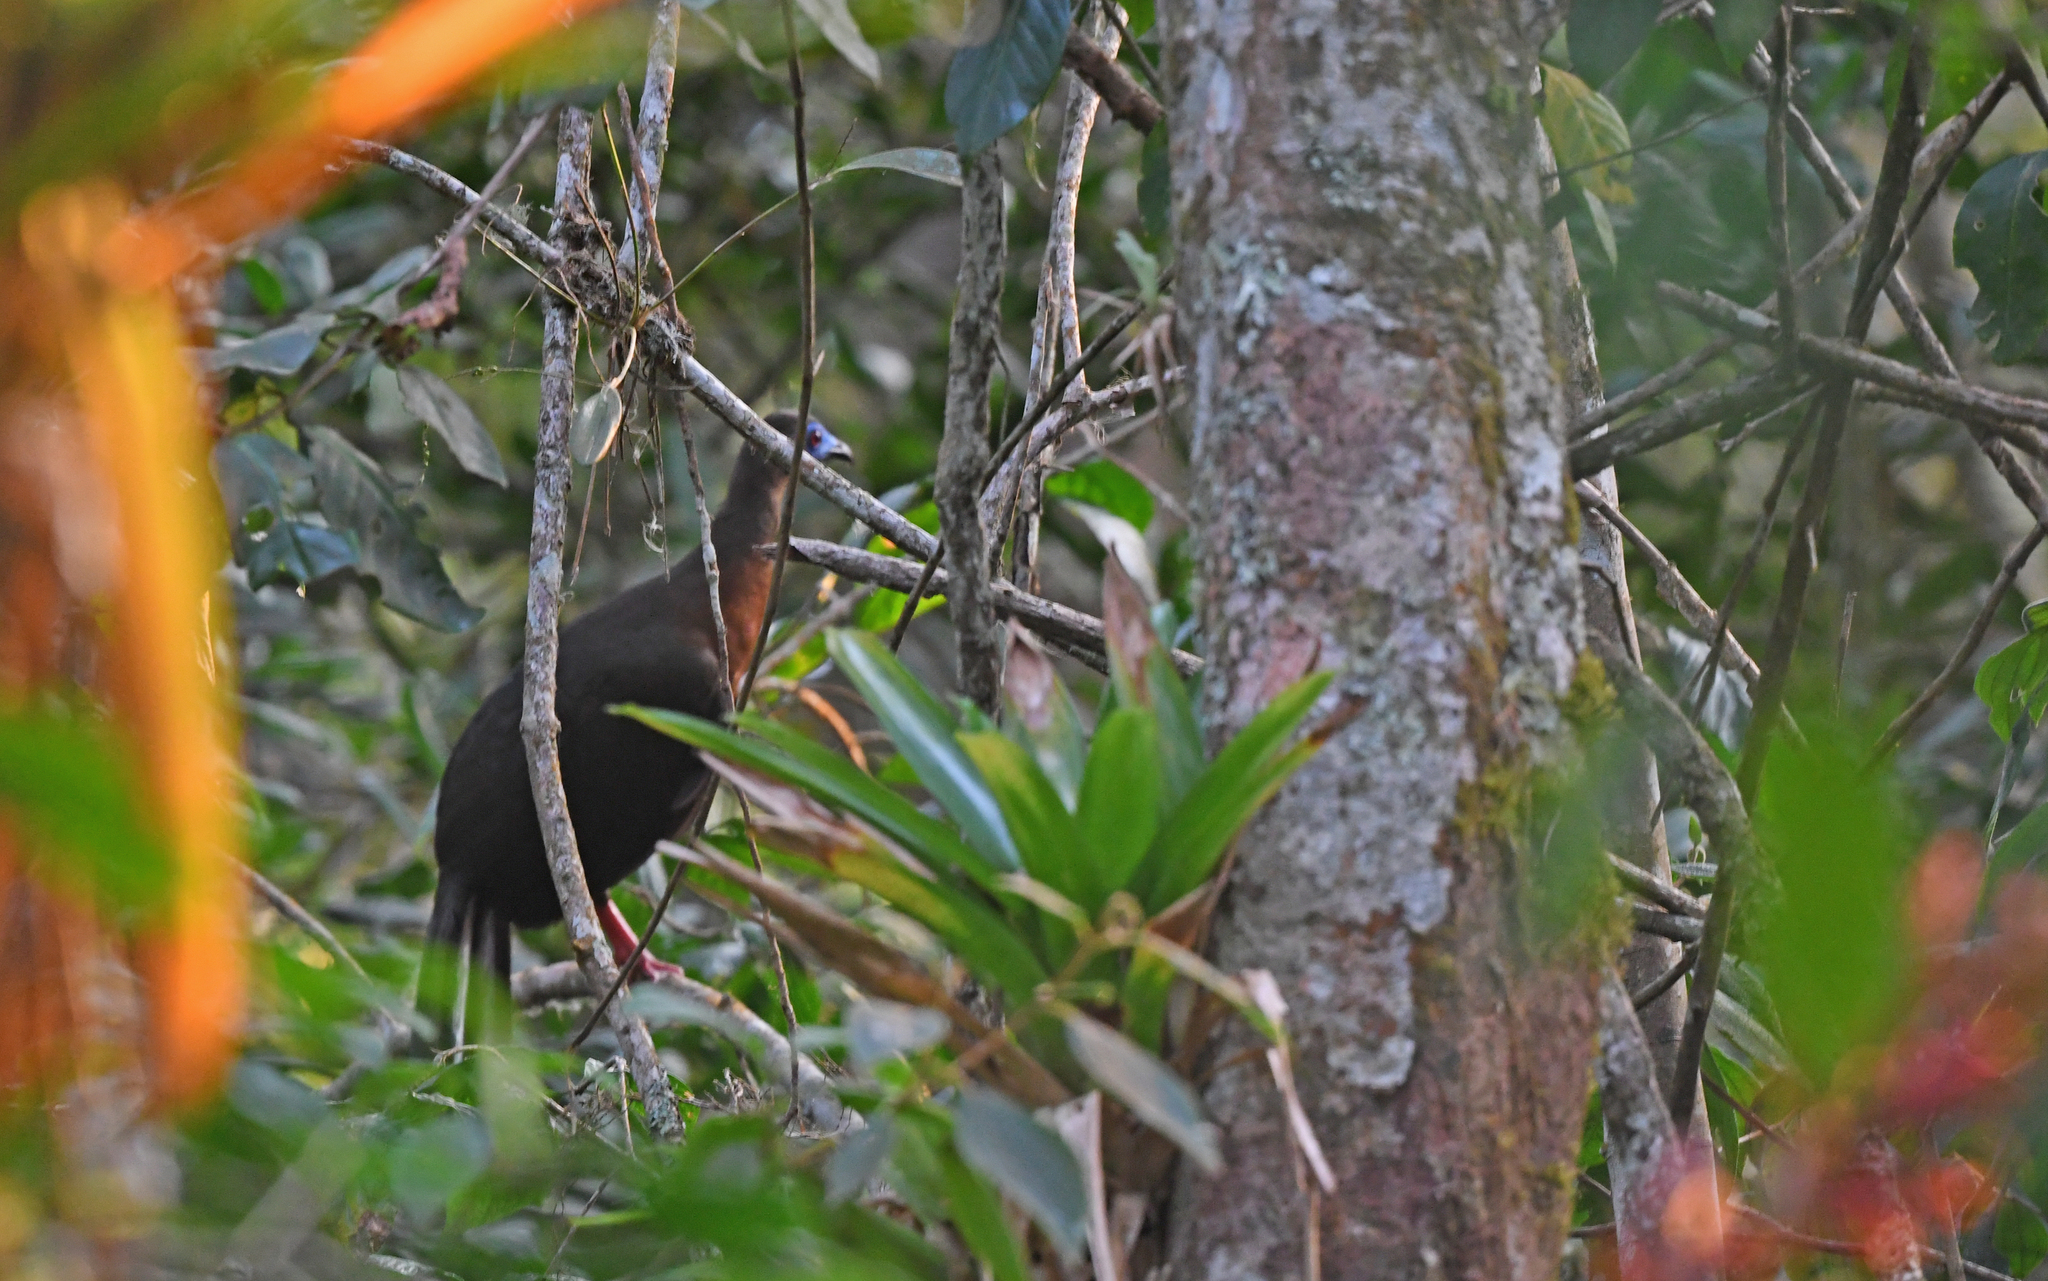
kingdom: Animalia
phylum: Chordata
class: Aves
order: Galliformes
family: Cracidae
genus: Chamaepetes
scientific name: Chamaepetes goudotii
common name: Sickle-winged guan
